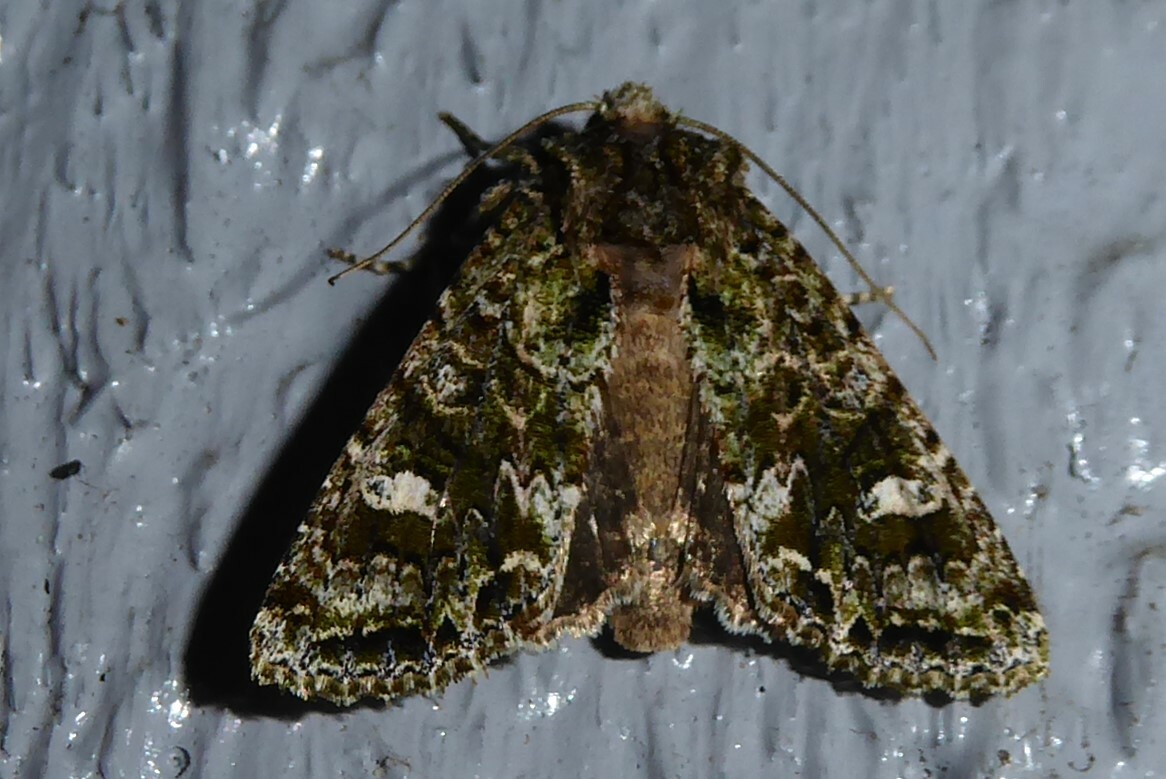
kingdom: Animalia
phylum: Arthropoda
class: Insecta
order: Lepidoptera
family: Noctuidae
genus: Ichneutica
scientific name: Ichneutica
